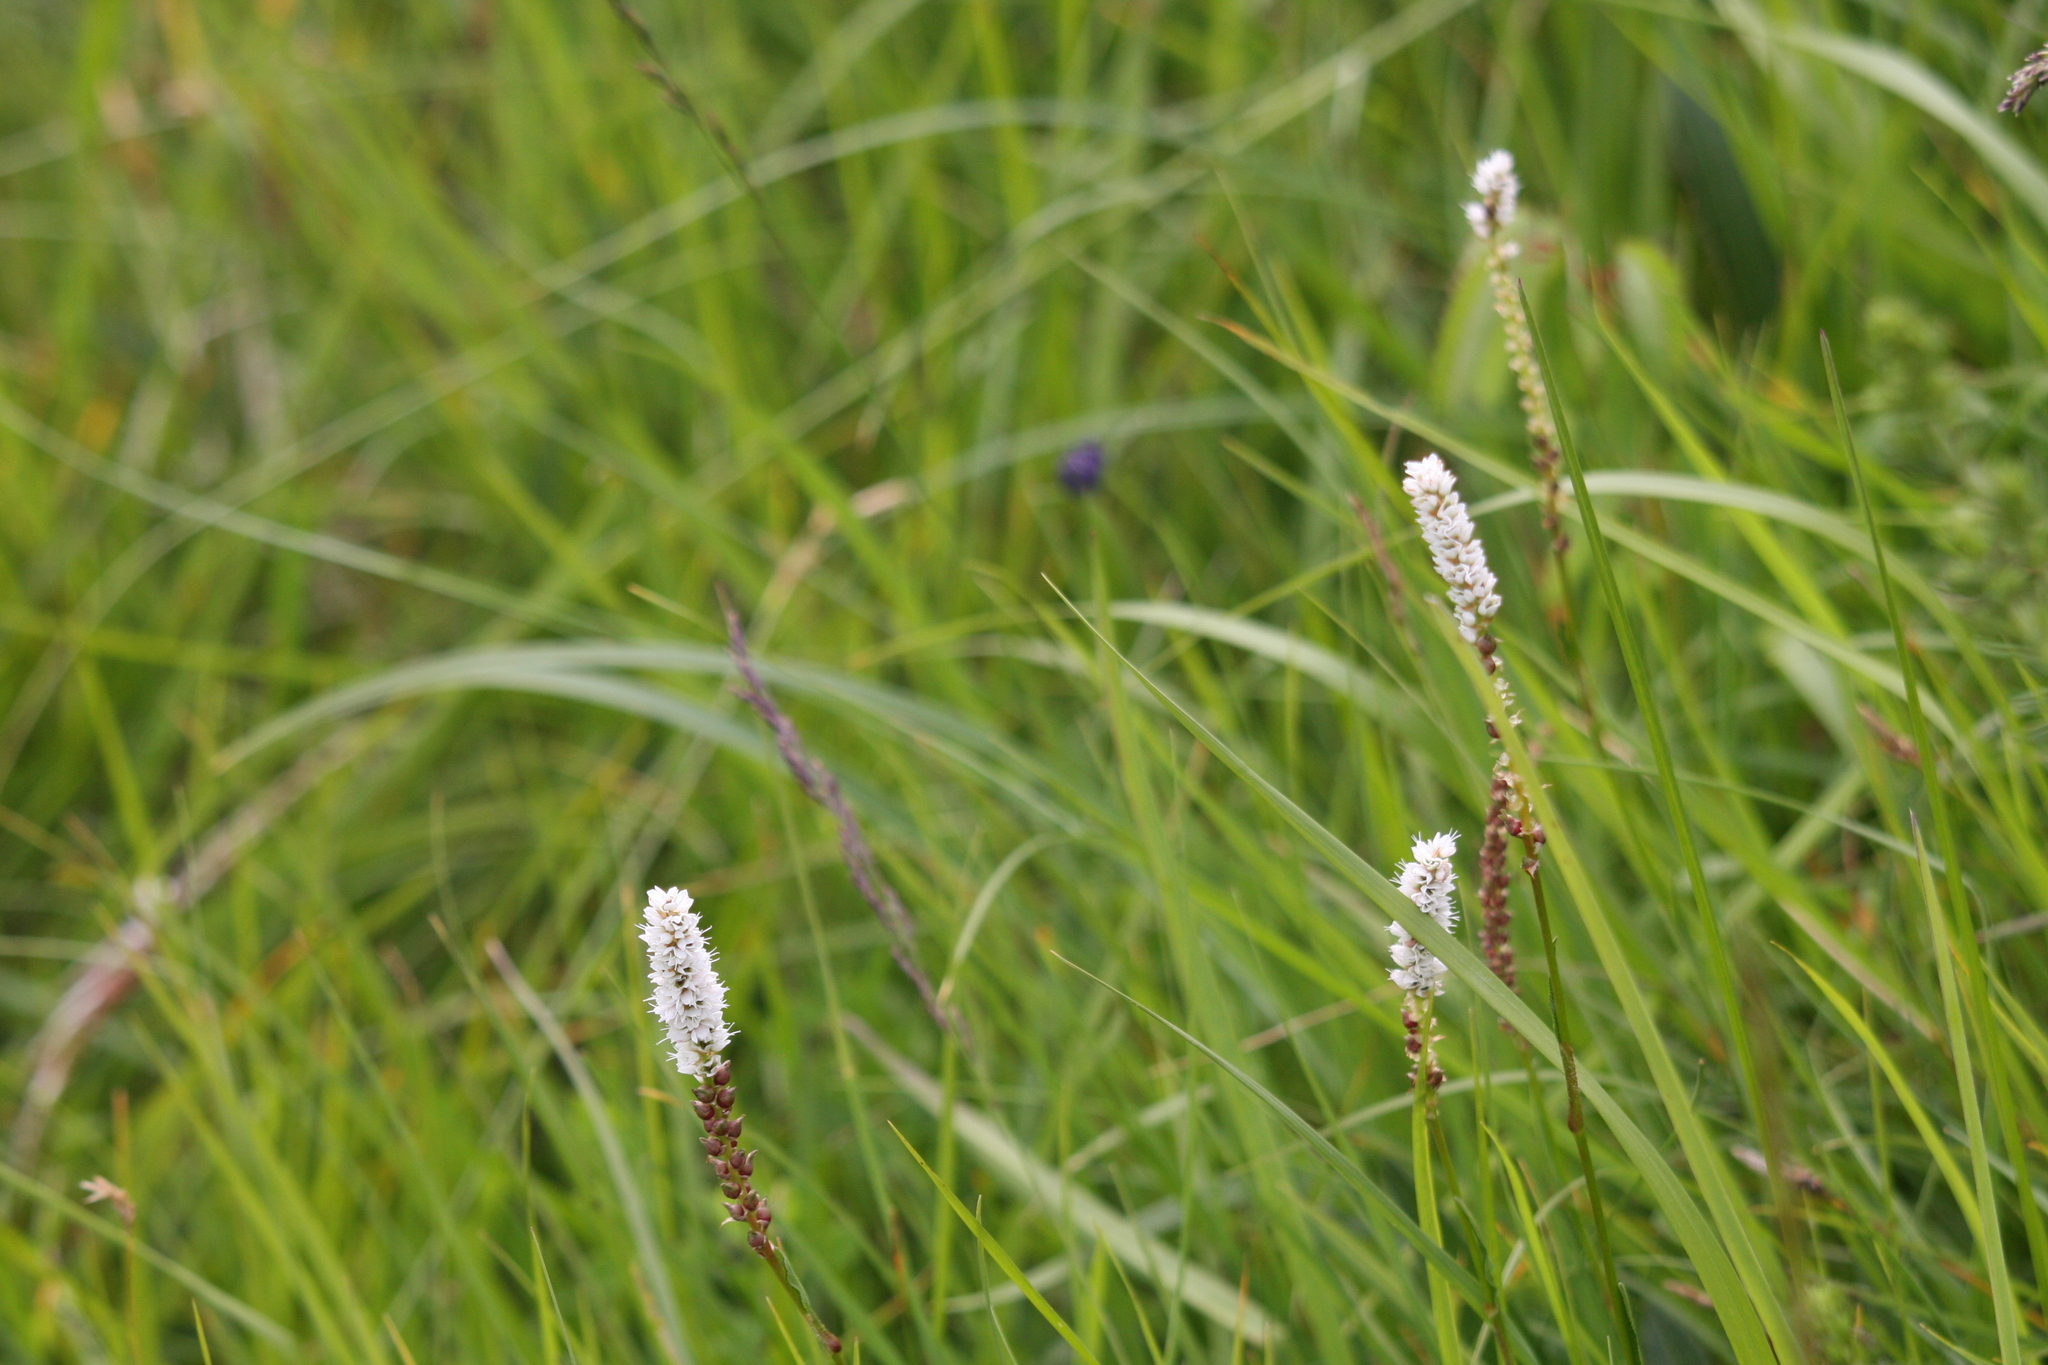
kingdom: Plantae
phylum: Tracheophyta
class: Magnoliopsida
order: Caryophyllales
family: Polygonaceae
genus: Bistorta
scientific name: Bistorta vivipara
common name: Alpine bistort
